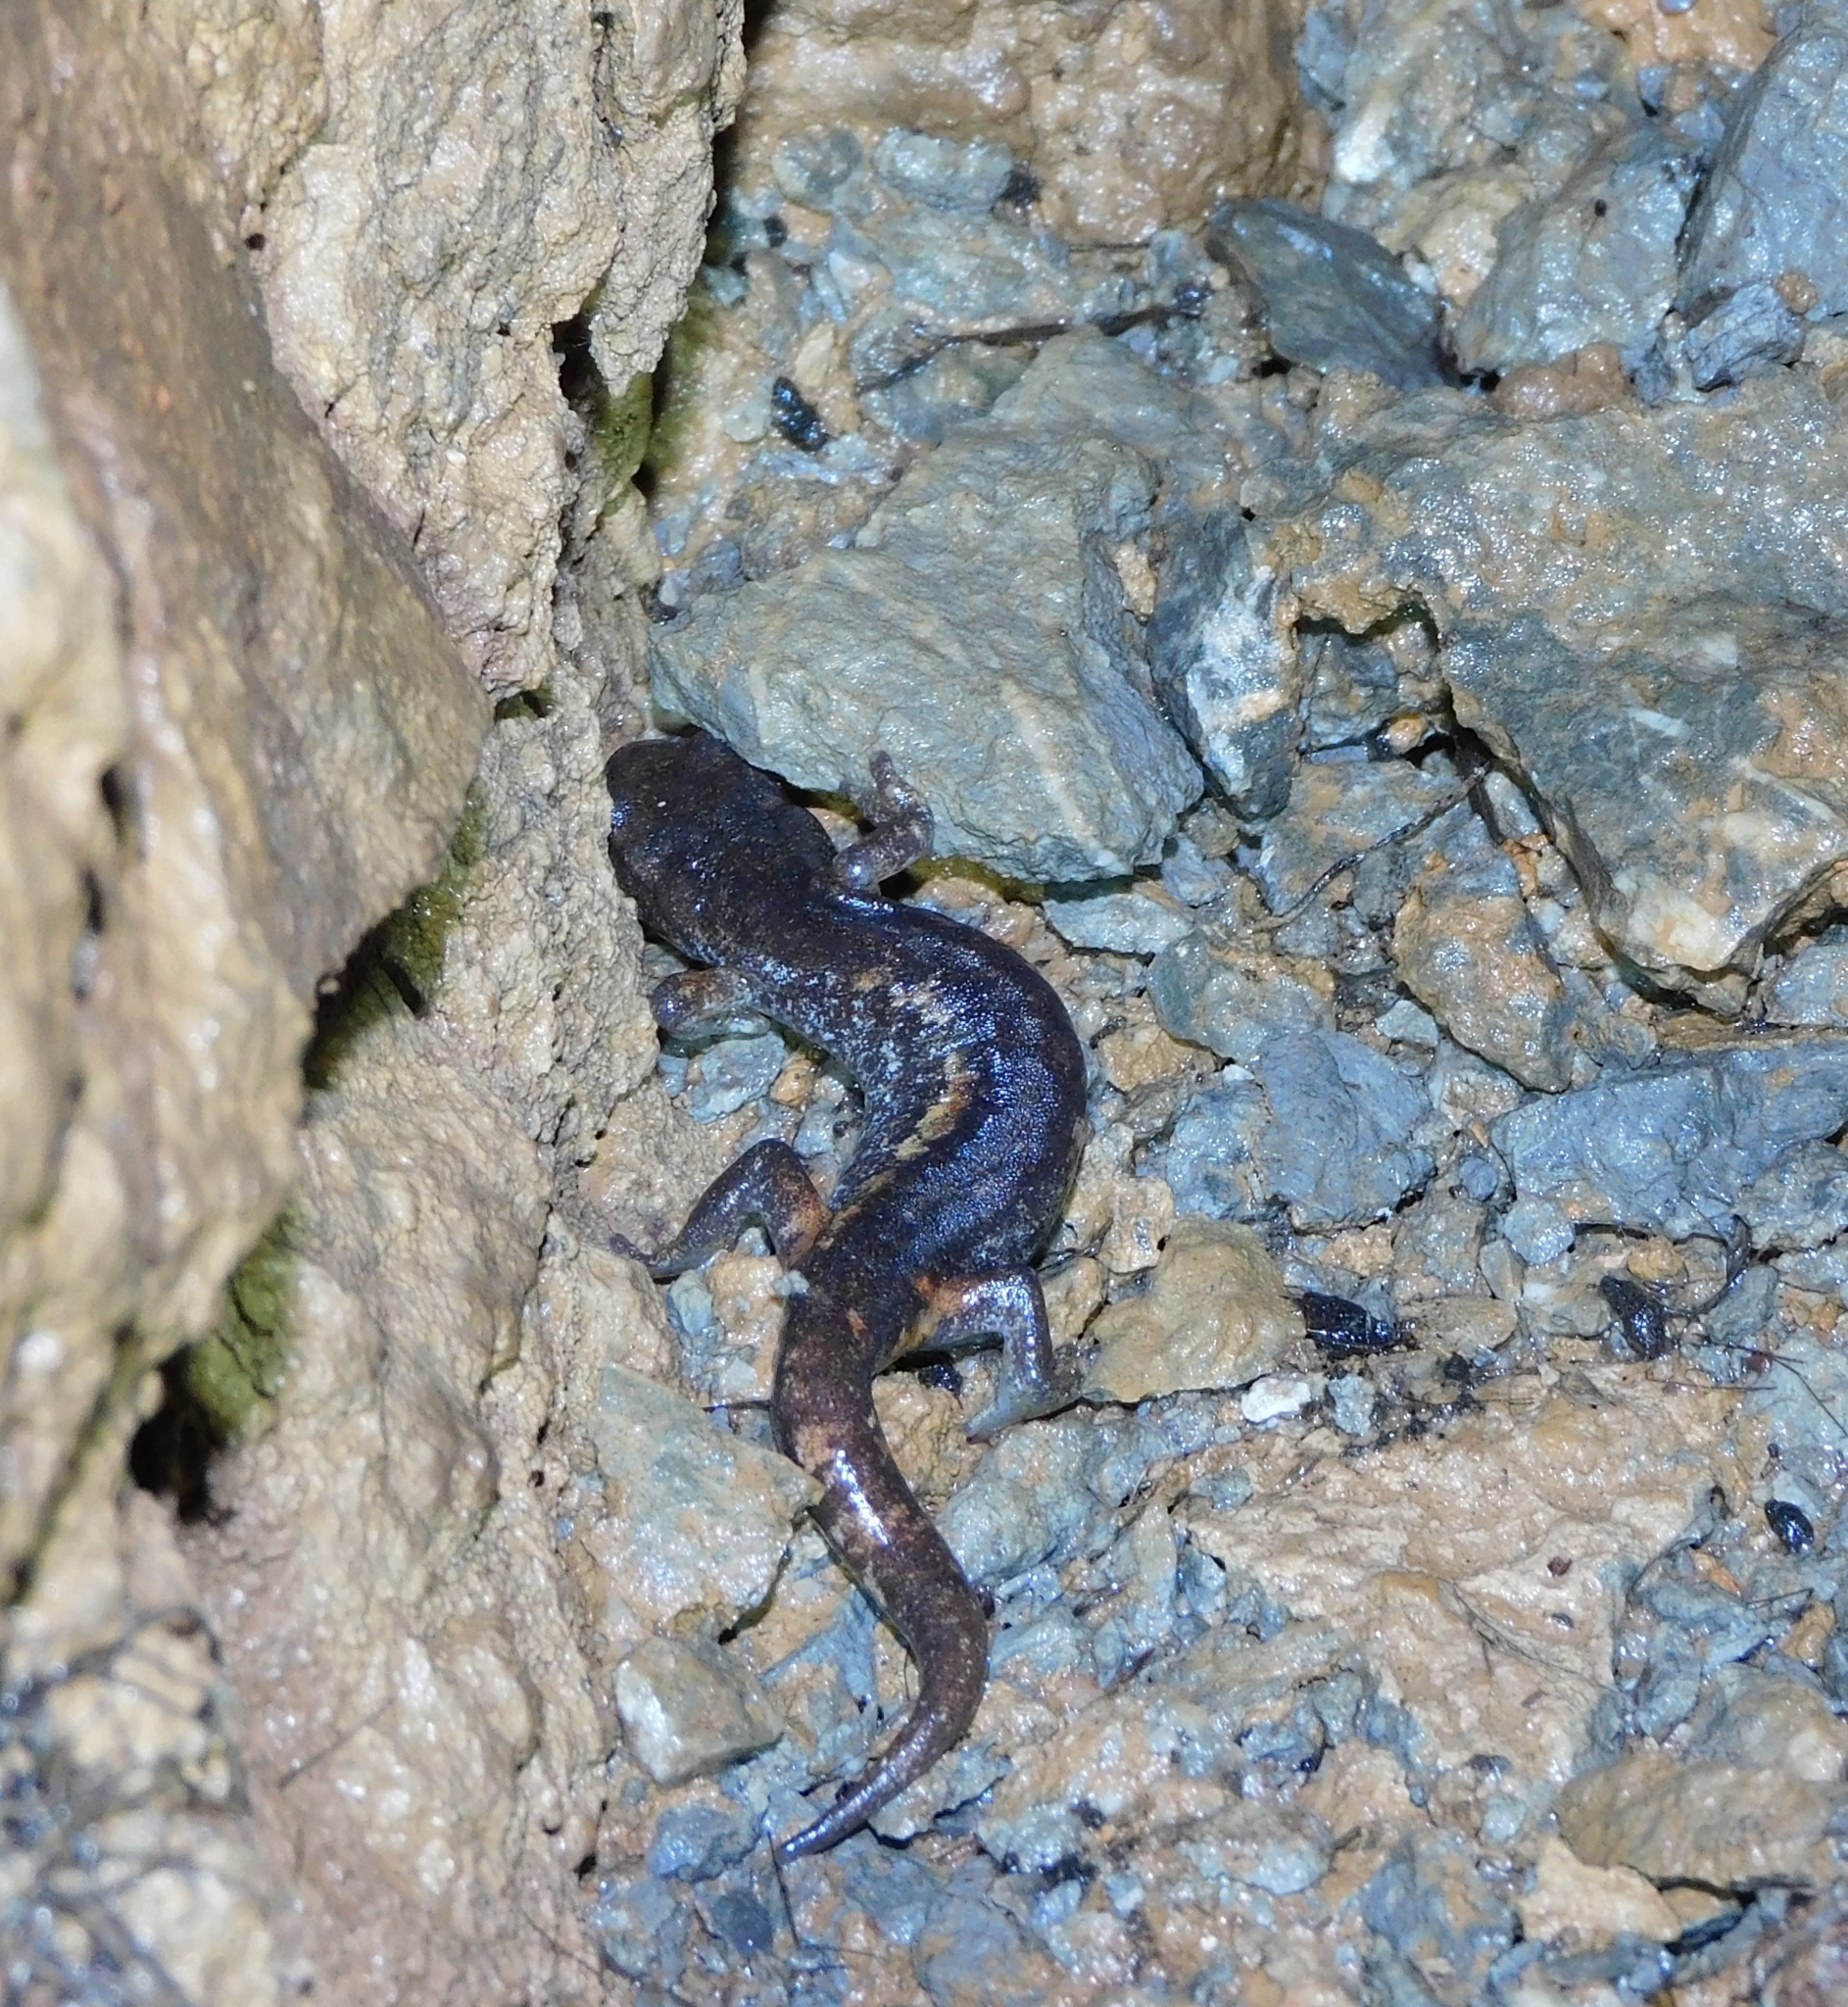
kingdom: Animalia
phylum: Chordata
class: Amphibia
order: Caudata
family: Plethodontidae
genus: Speleomantes
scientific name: Speleomantes ambrosii
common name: Ambrosi's cave salamander
